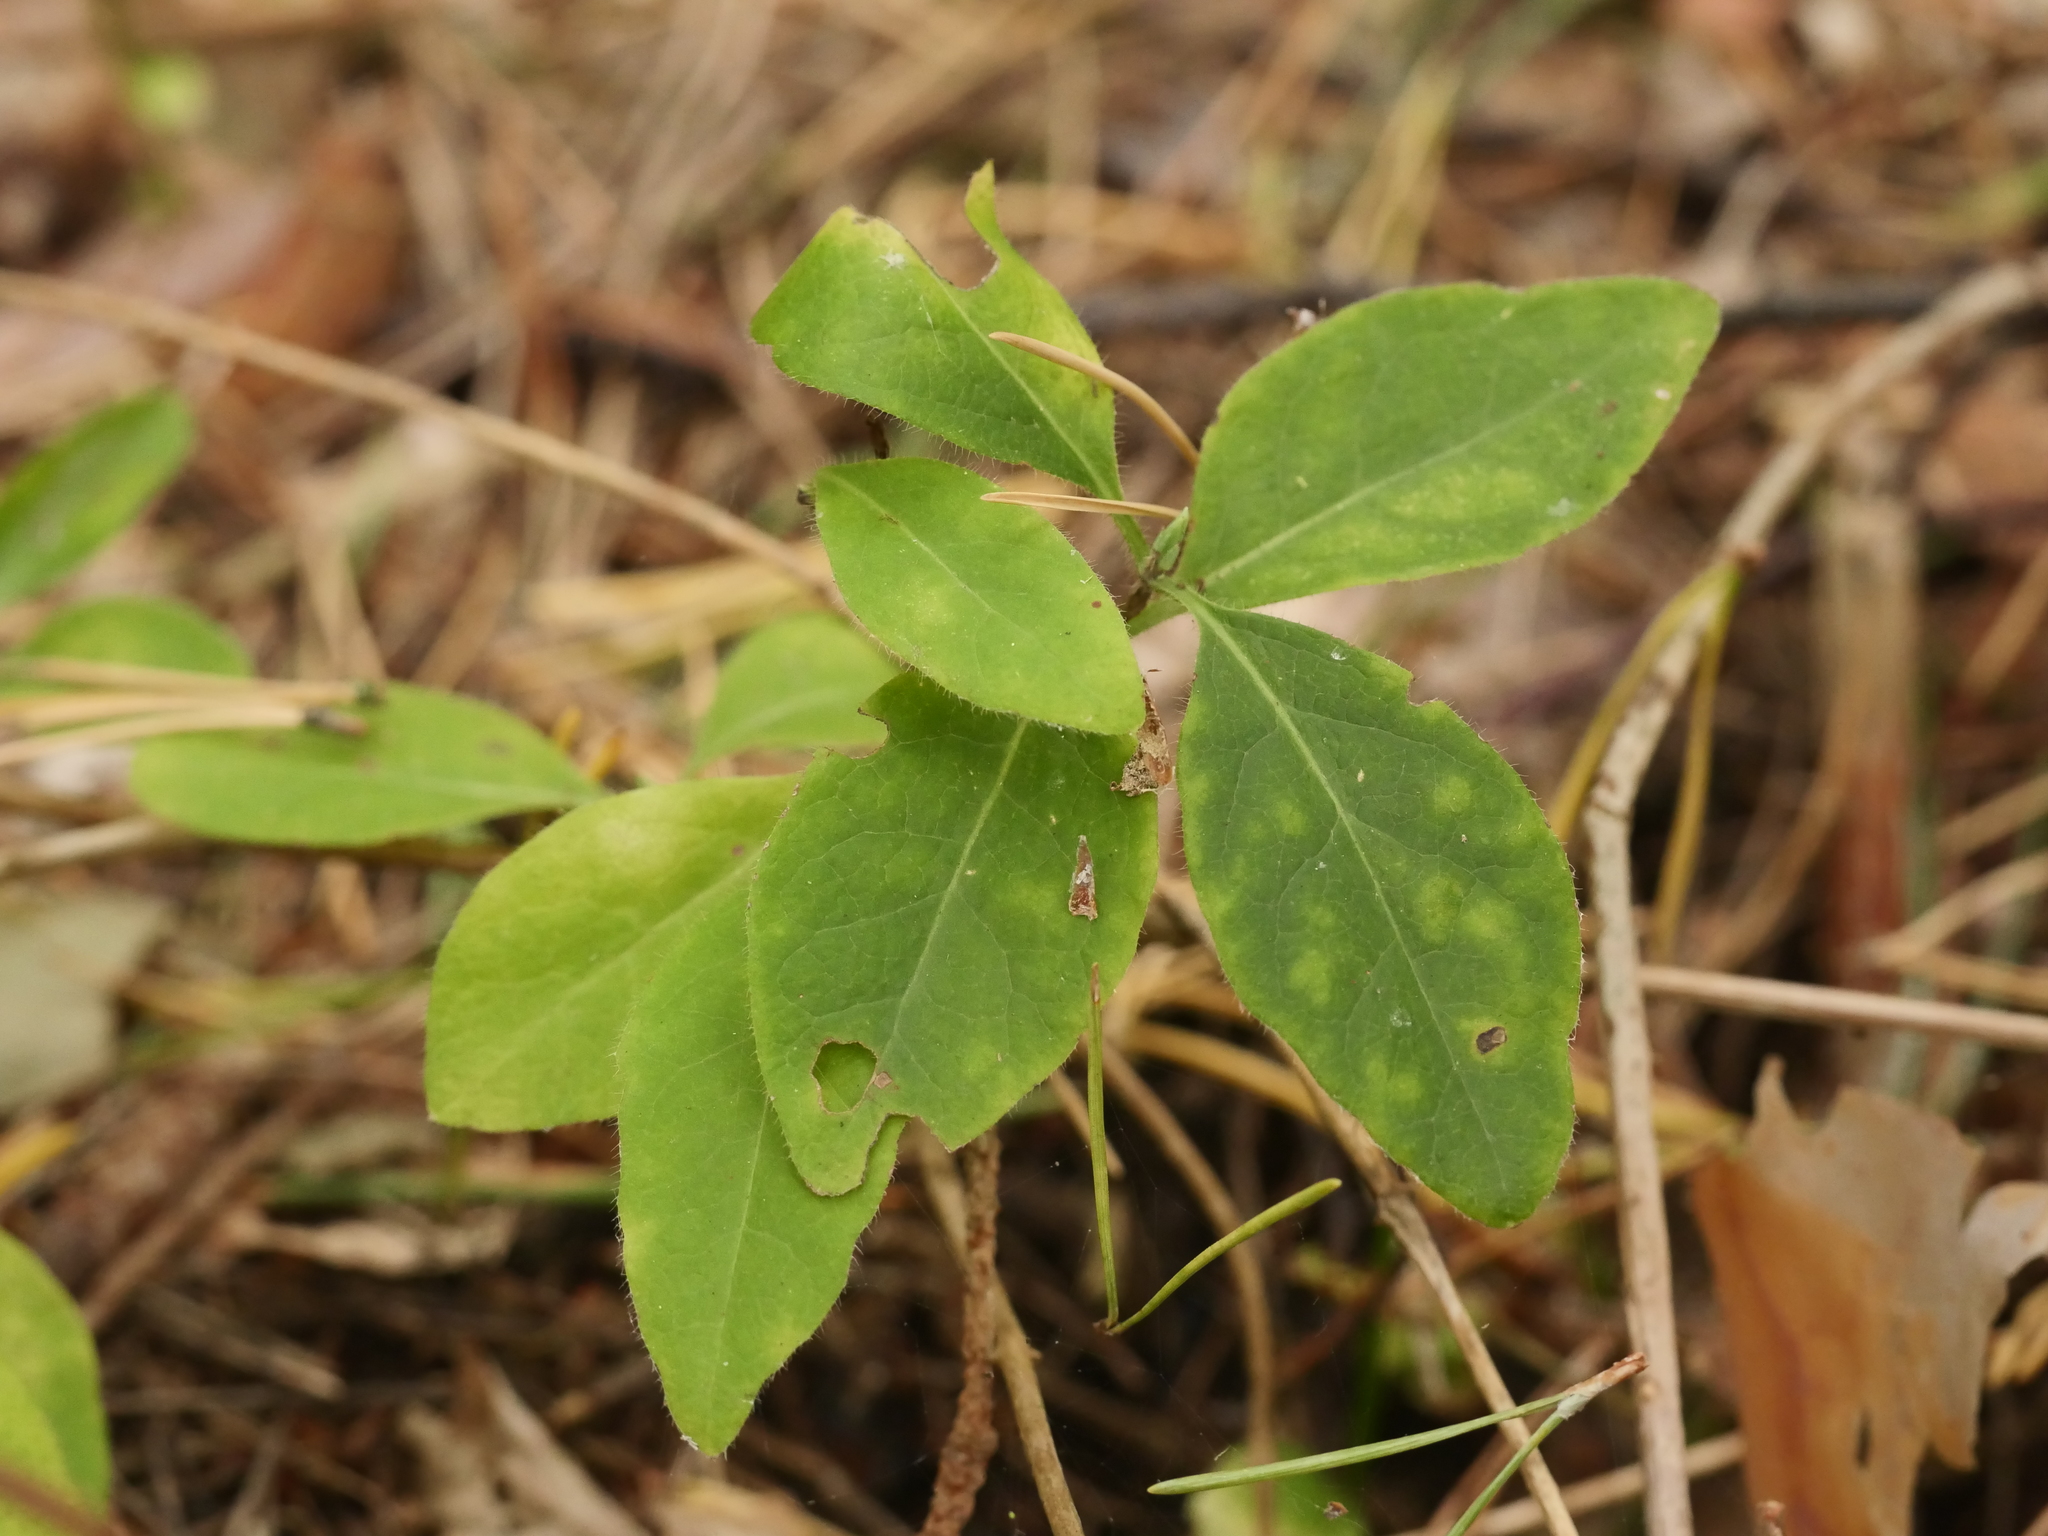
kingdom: Plantae
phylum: Tracheophyta
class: Magnoliopsida
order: Dipsacales
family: Caprifoliaceae
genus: Lonicera
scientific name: Lonicera periclymenum
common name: European honeysuckle
